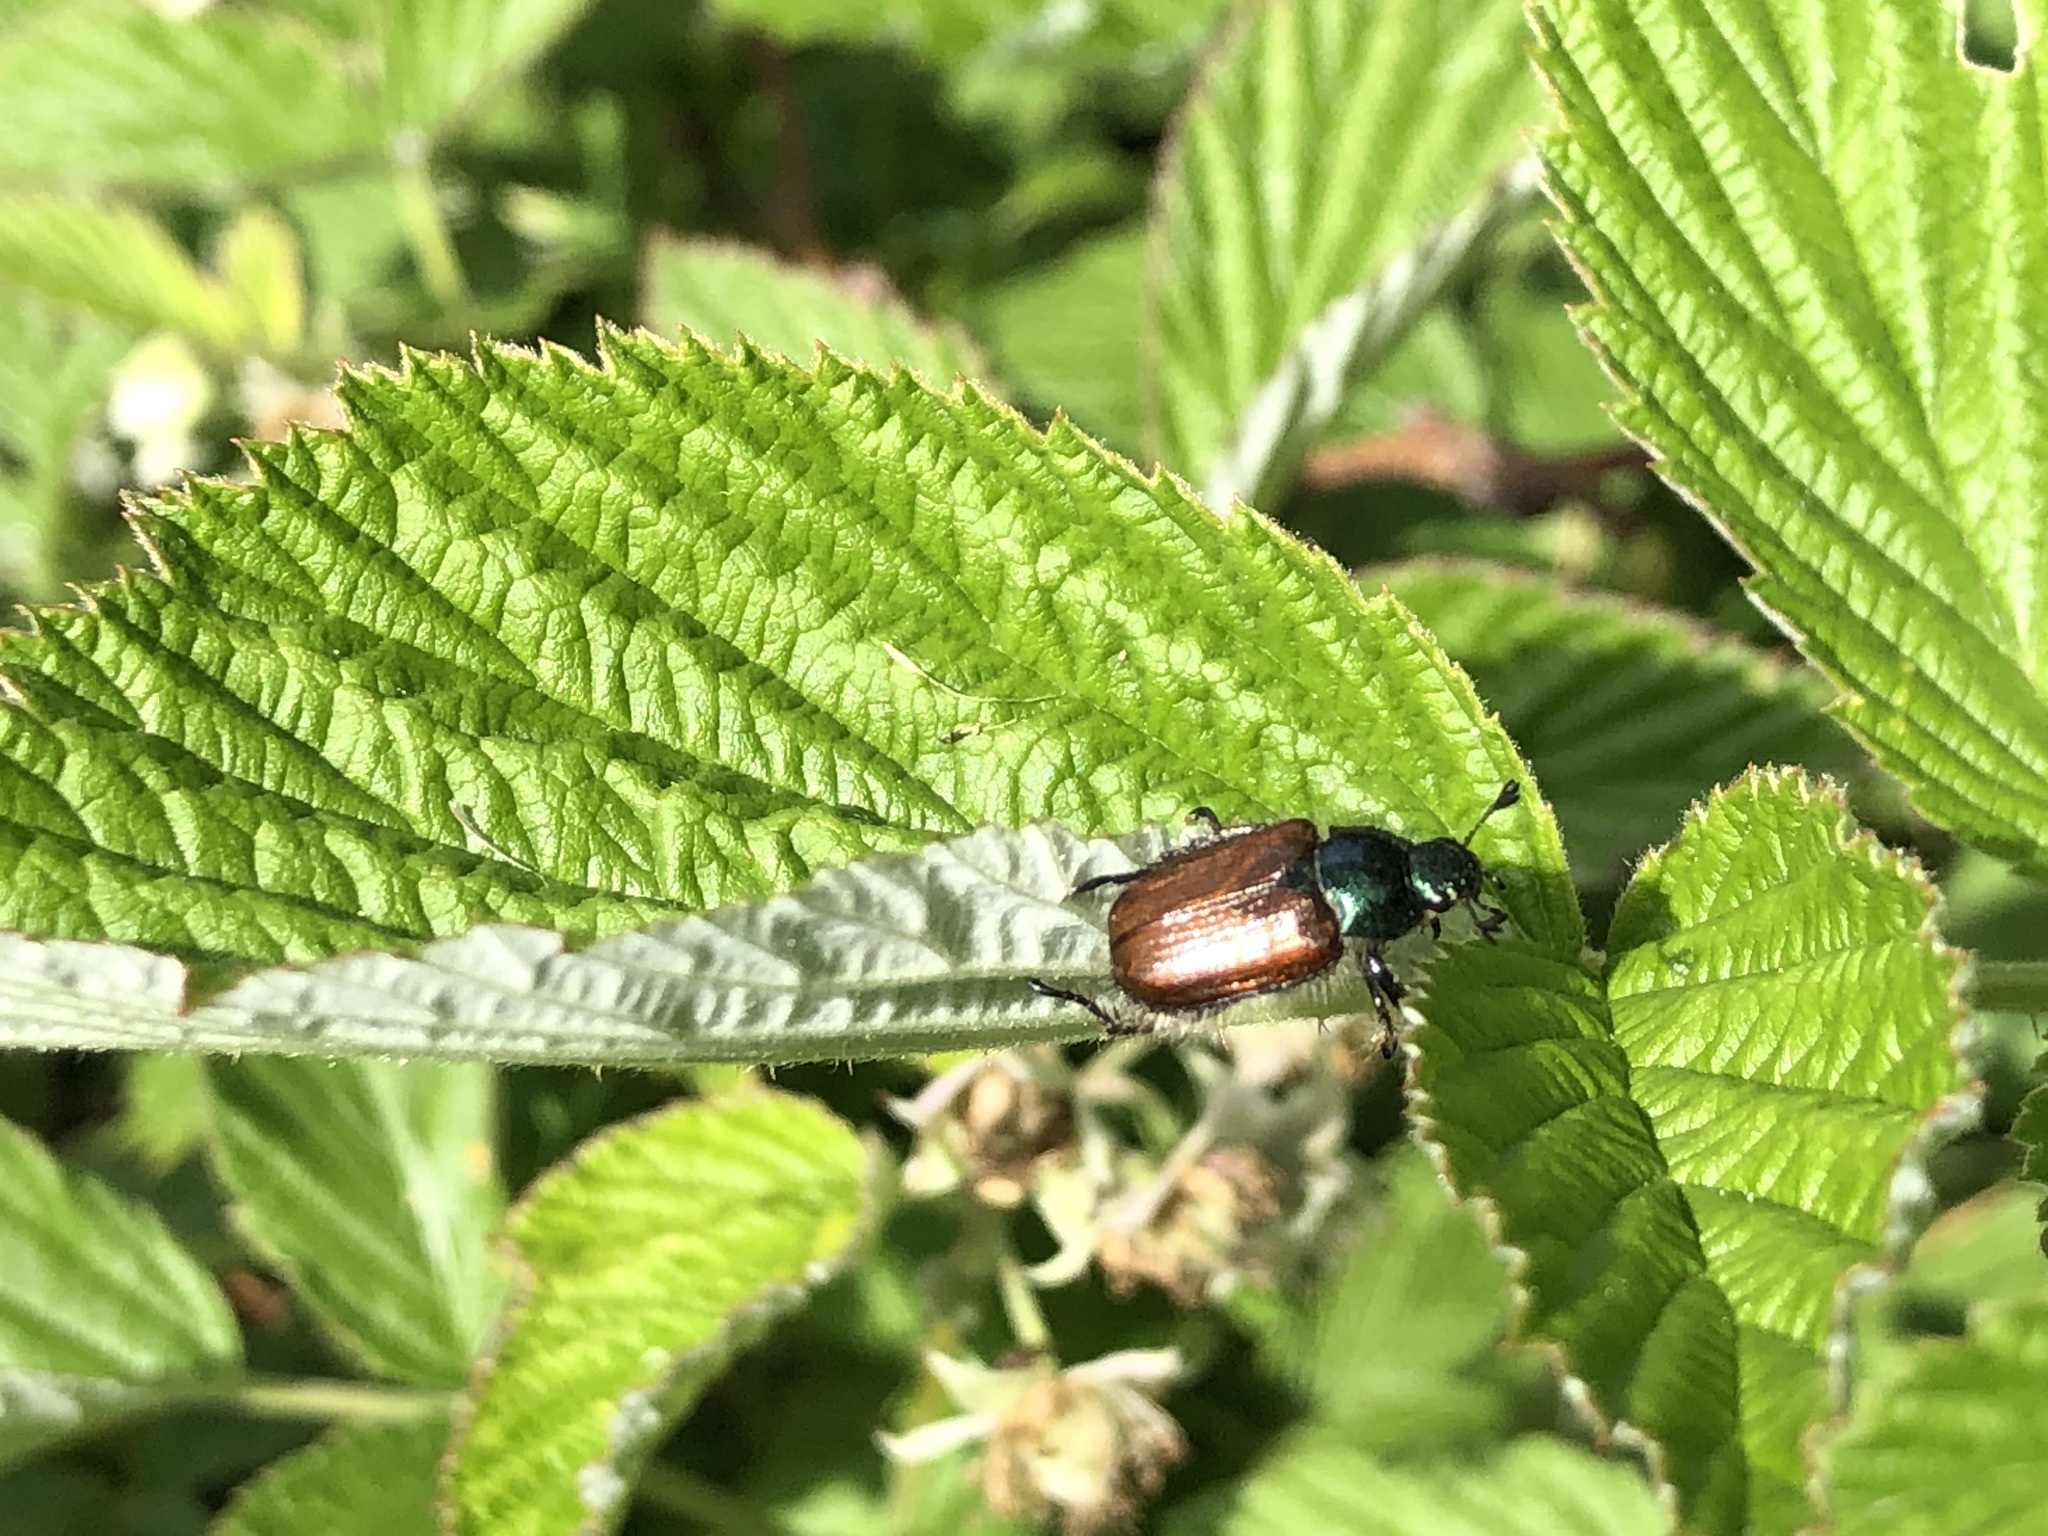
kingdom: Animalia
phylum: Arthropoda
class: Insecta
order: Coleoptera
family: Scarabaeidae
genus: Phyllopertha
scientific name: Phyllopertha horticola
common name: Garden chafer
